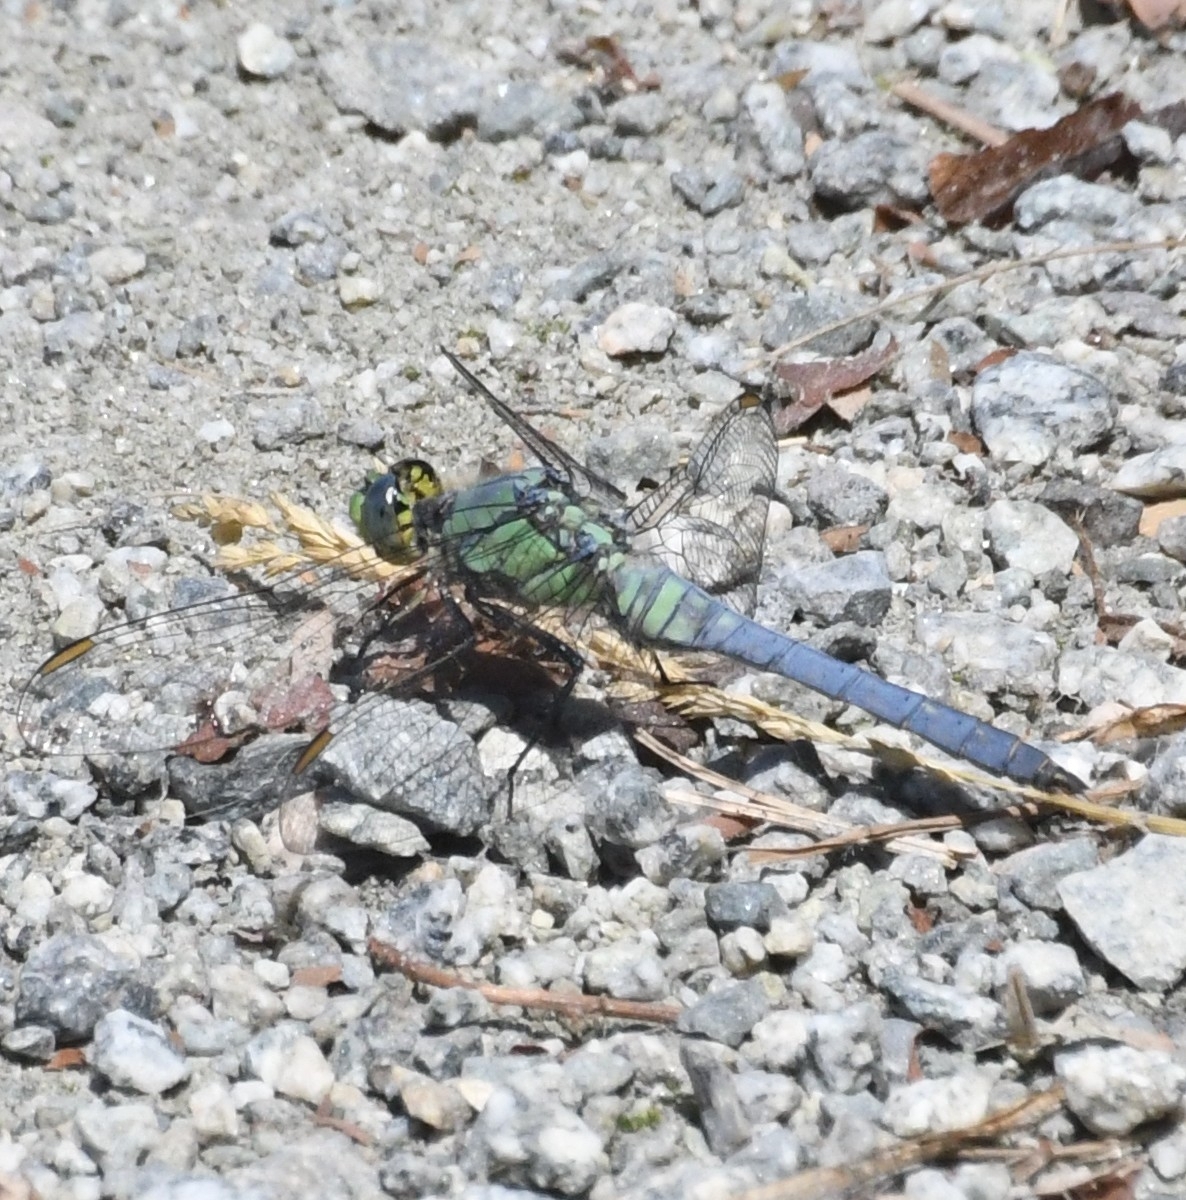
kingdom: Animalia
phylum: Arthropoda
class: Insecta
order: Odonata
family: Libellulidae
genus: Erythemis
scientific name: Erythemis collocata
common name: Western pondhawk
